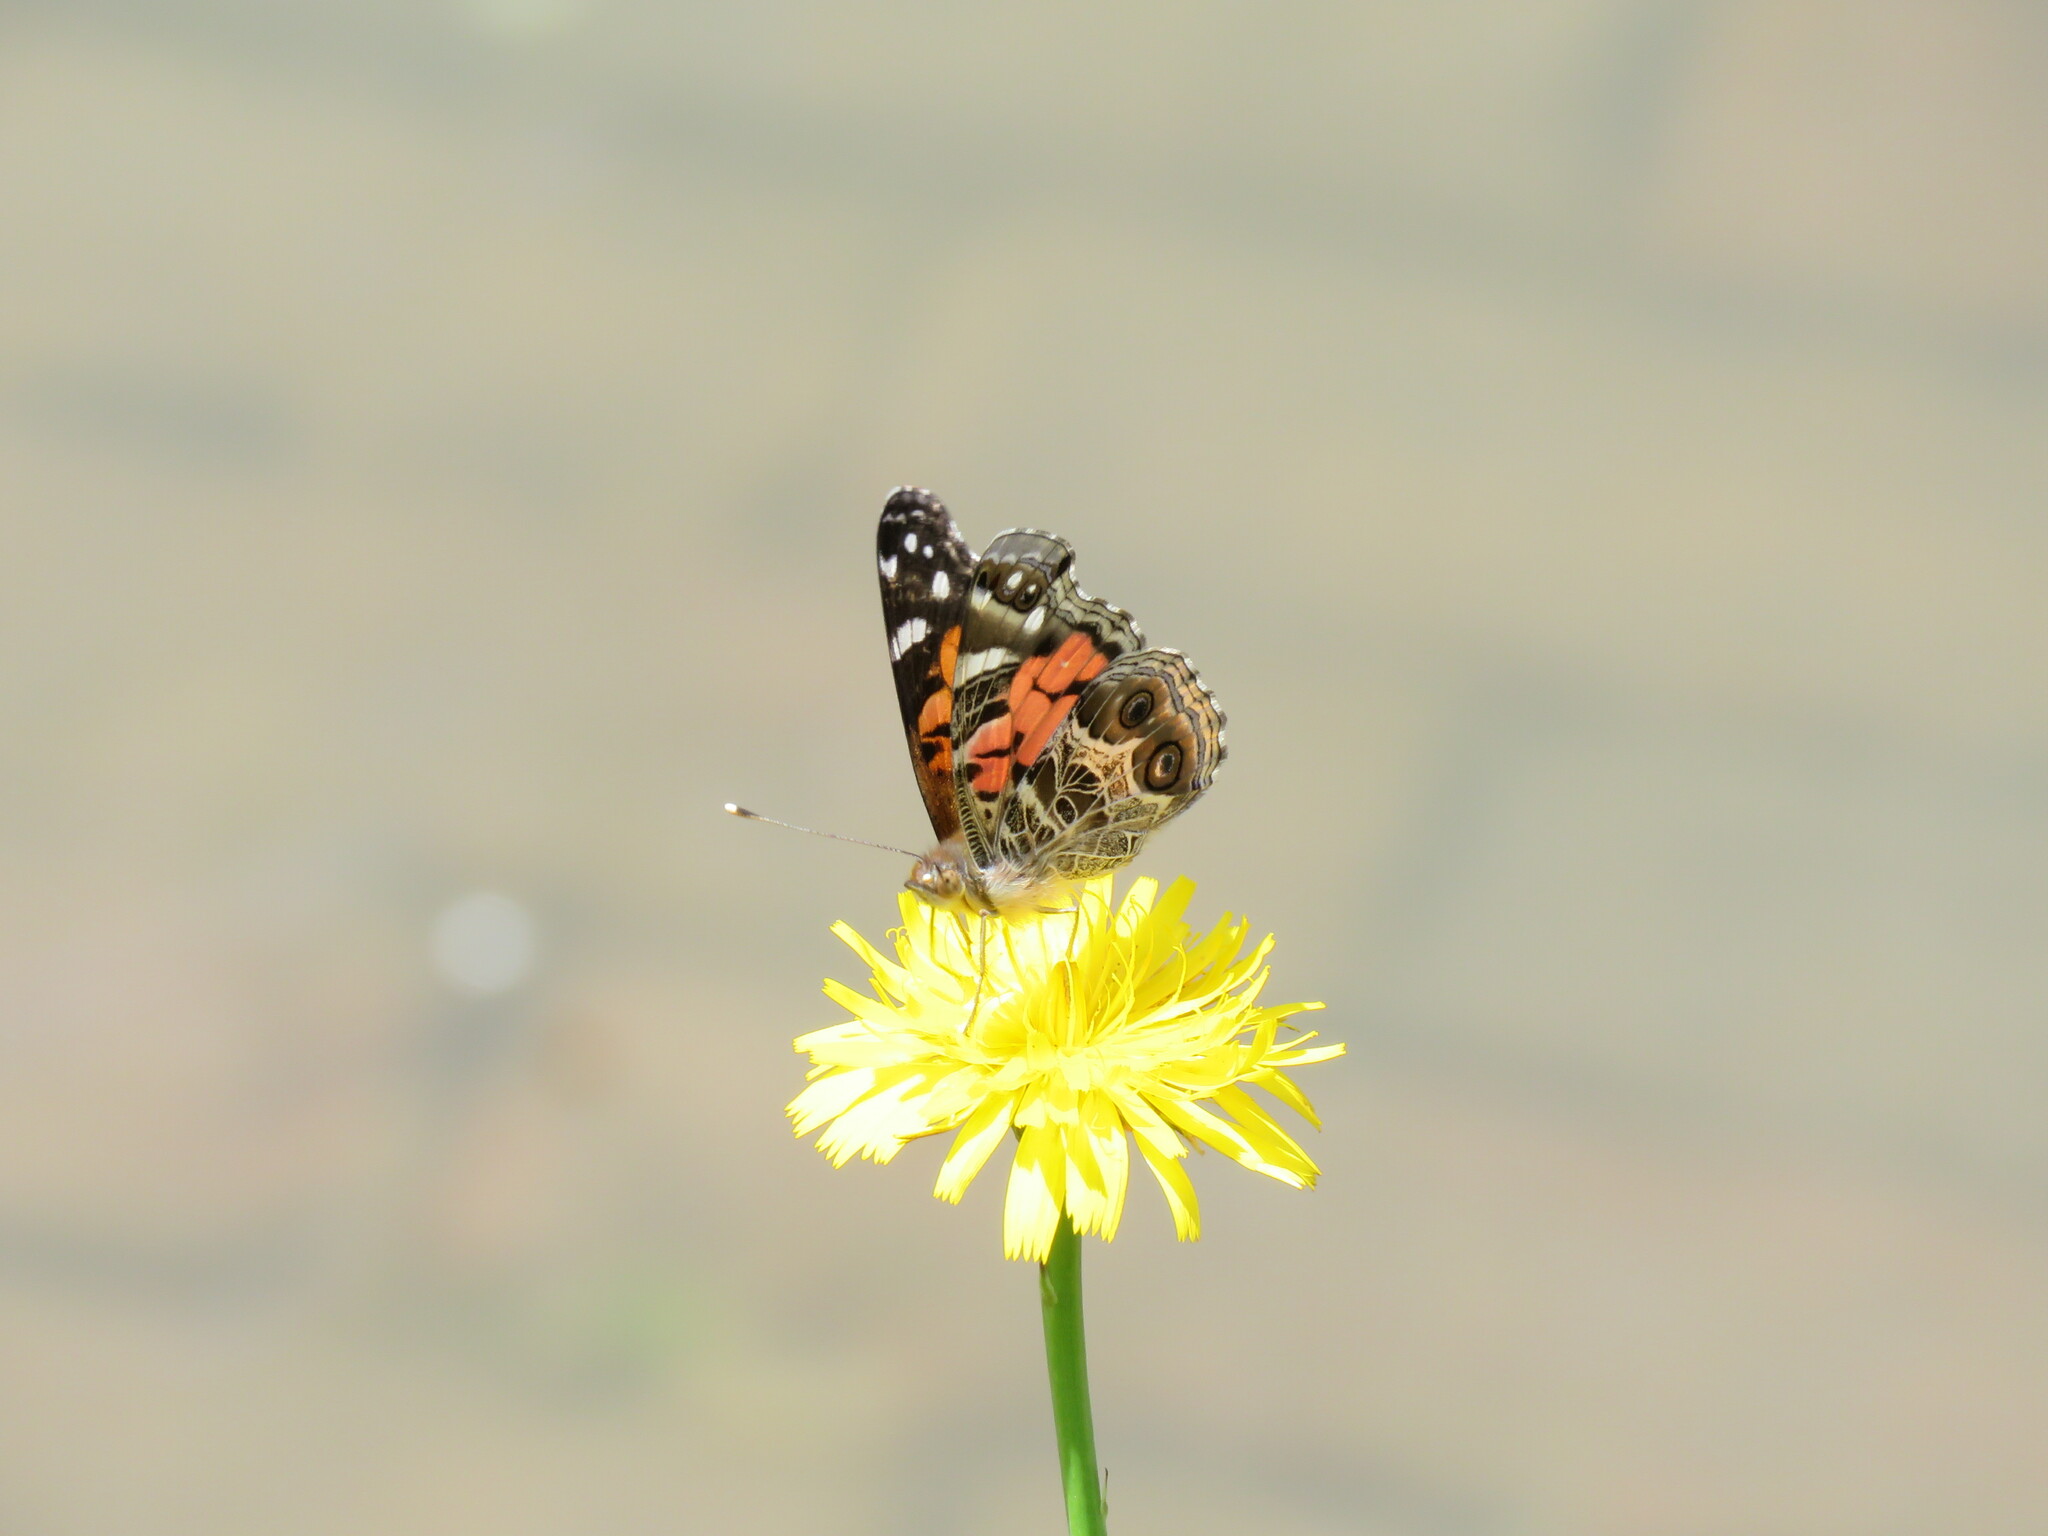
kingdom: Animalia
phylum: Arthropoda
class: Insecta
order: Lepidoptera
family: Nymphalidae
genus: Vanessa
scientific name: Vanessa virginiensis
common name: American lady
